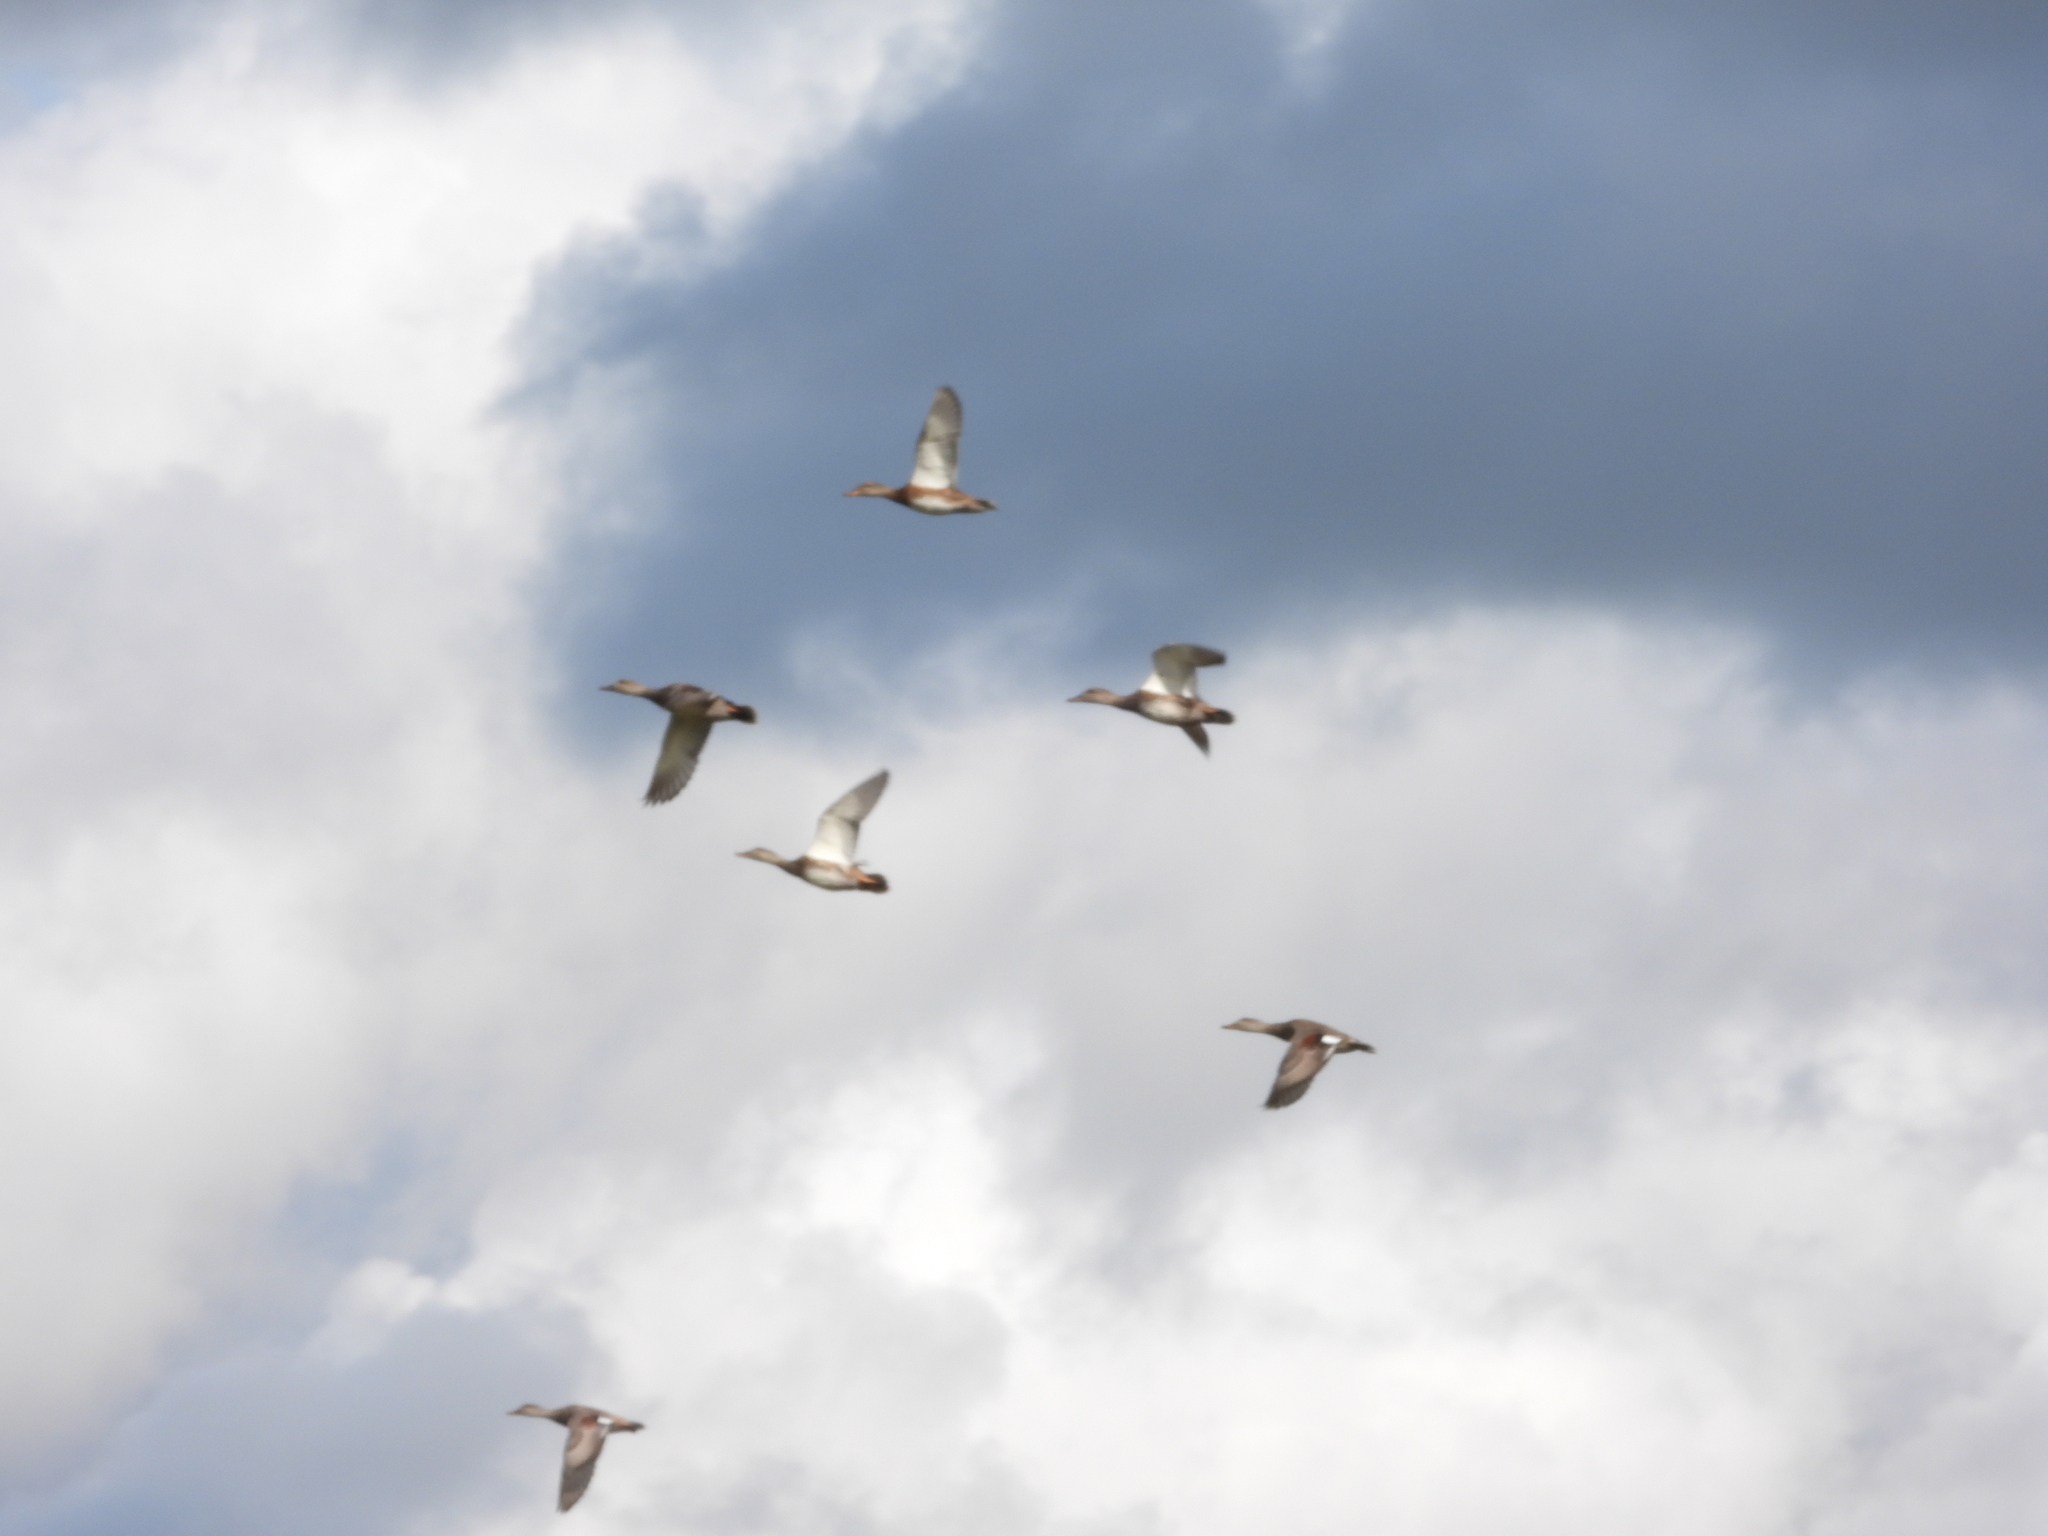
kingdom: Animalia
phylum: Chordata
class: Aves
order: Anseriformes
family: Anatidae
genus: Mareca
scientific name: Mareca strepera
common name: Gadwall
